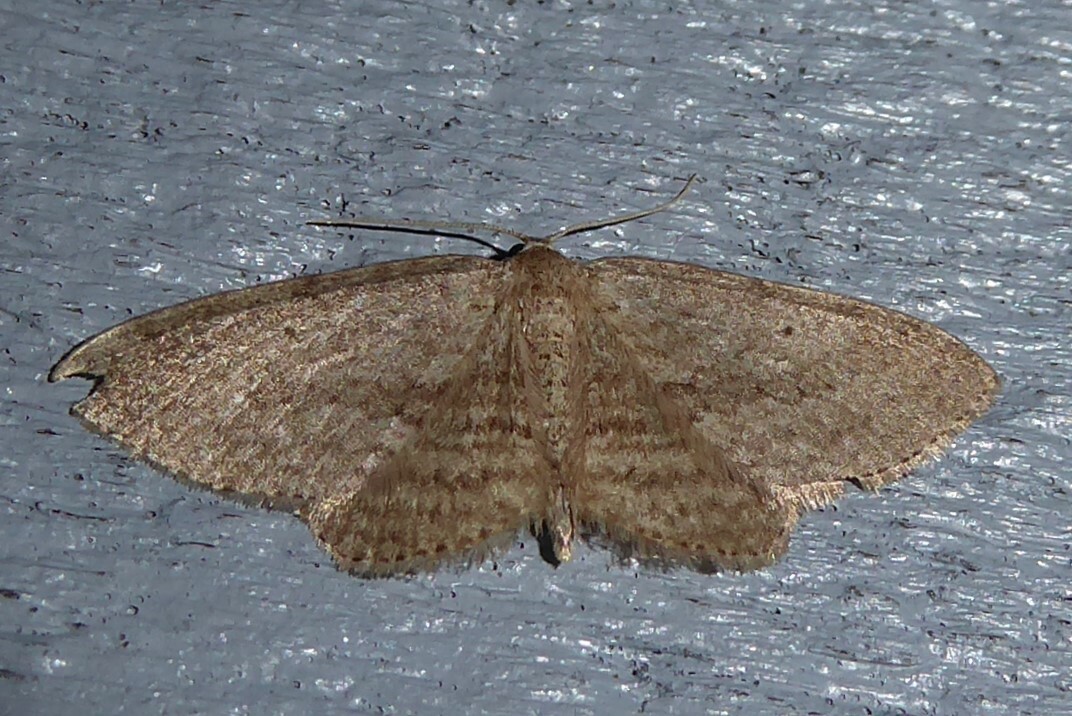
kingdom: Animalia
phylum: Arthropoda
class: Insecta
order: Lepidoptera
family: Geometridae
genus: Poecilasthena
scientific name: Poecilasthena schistaria
